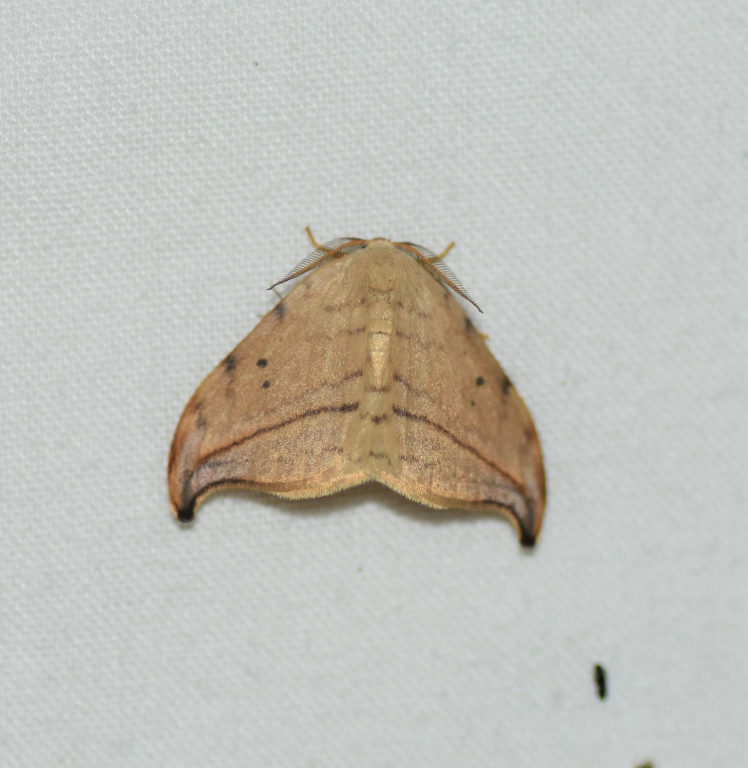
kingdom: Animalia
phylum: Arthropoda
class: Insecta
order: Lepidoptera
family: Drepanidae
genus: Drepana
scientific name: Drepana arcuata
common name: Arched hooktip moth
